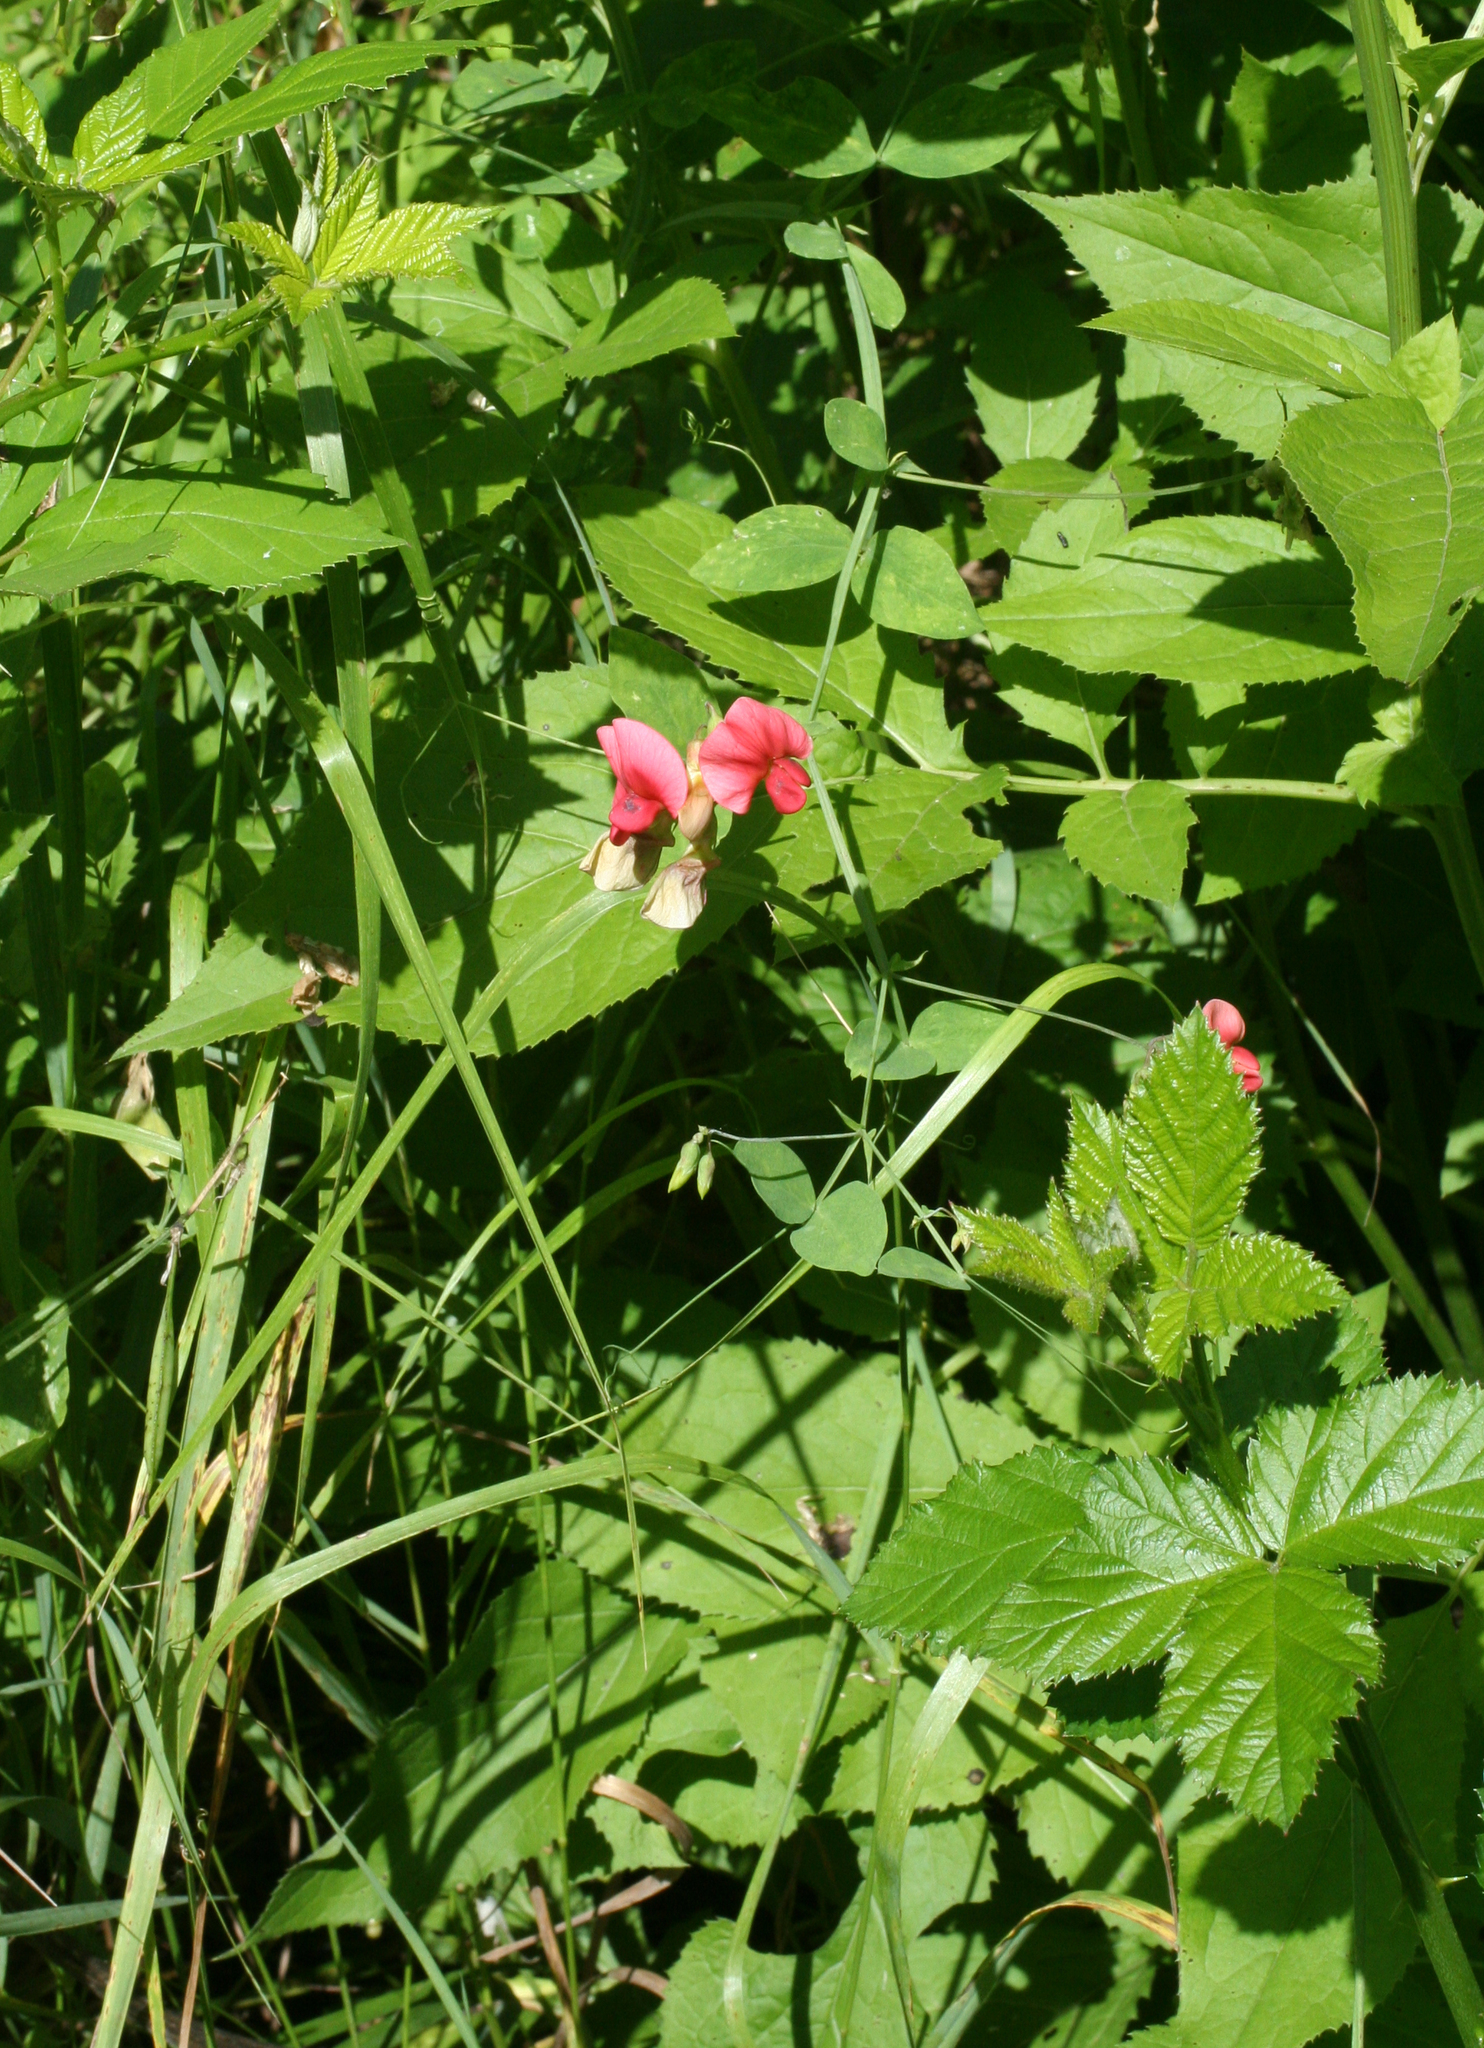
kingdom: Plantae
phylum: Tracheophyta
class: Magnoliopsida
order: Fabales
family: Fabaceae
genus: Lathyrus
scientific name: Lathyrus miniatus
